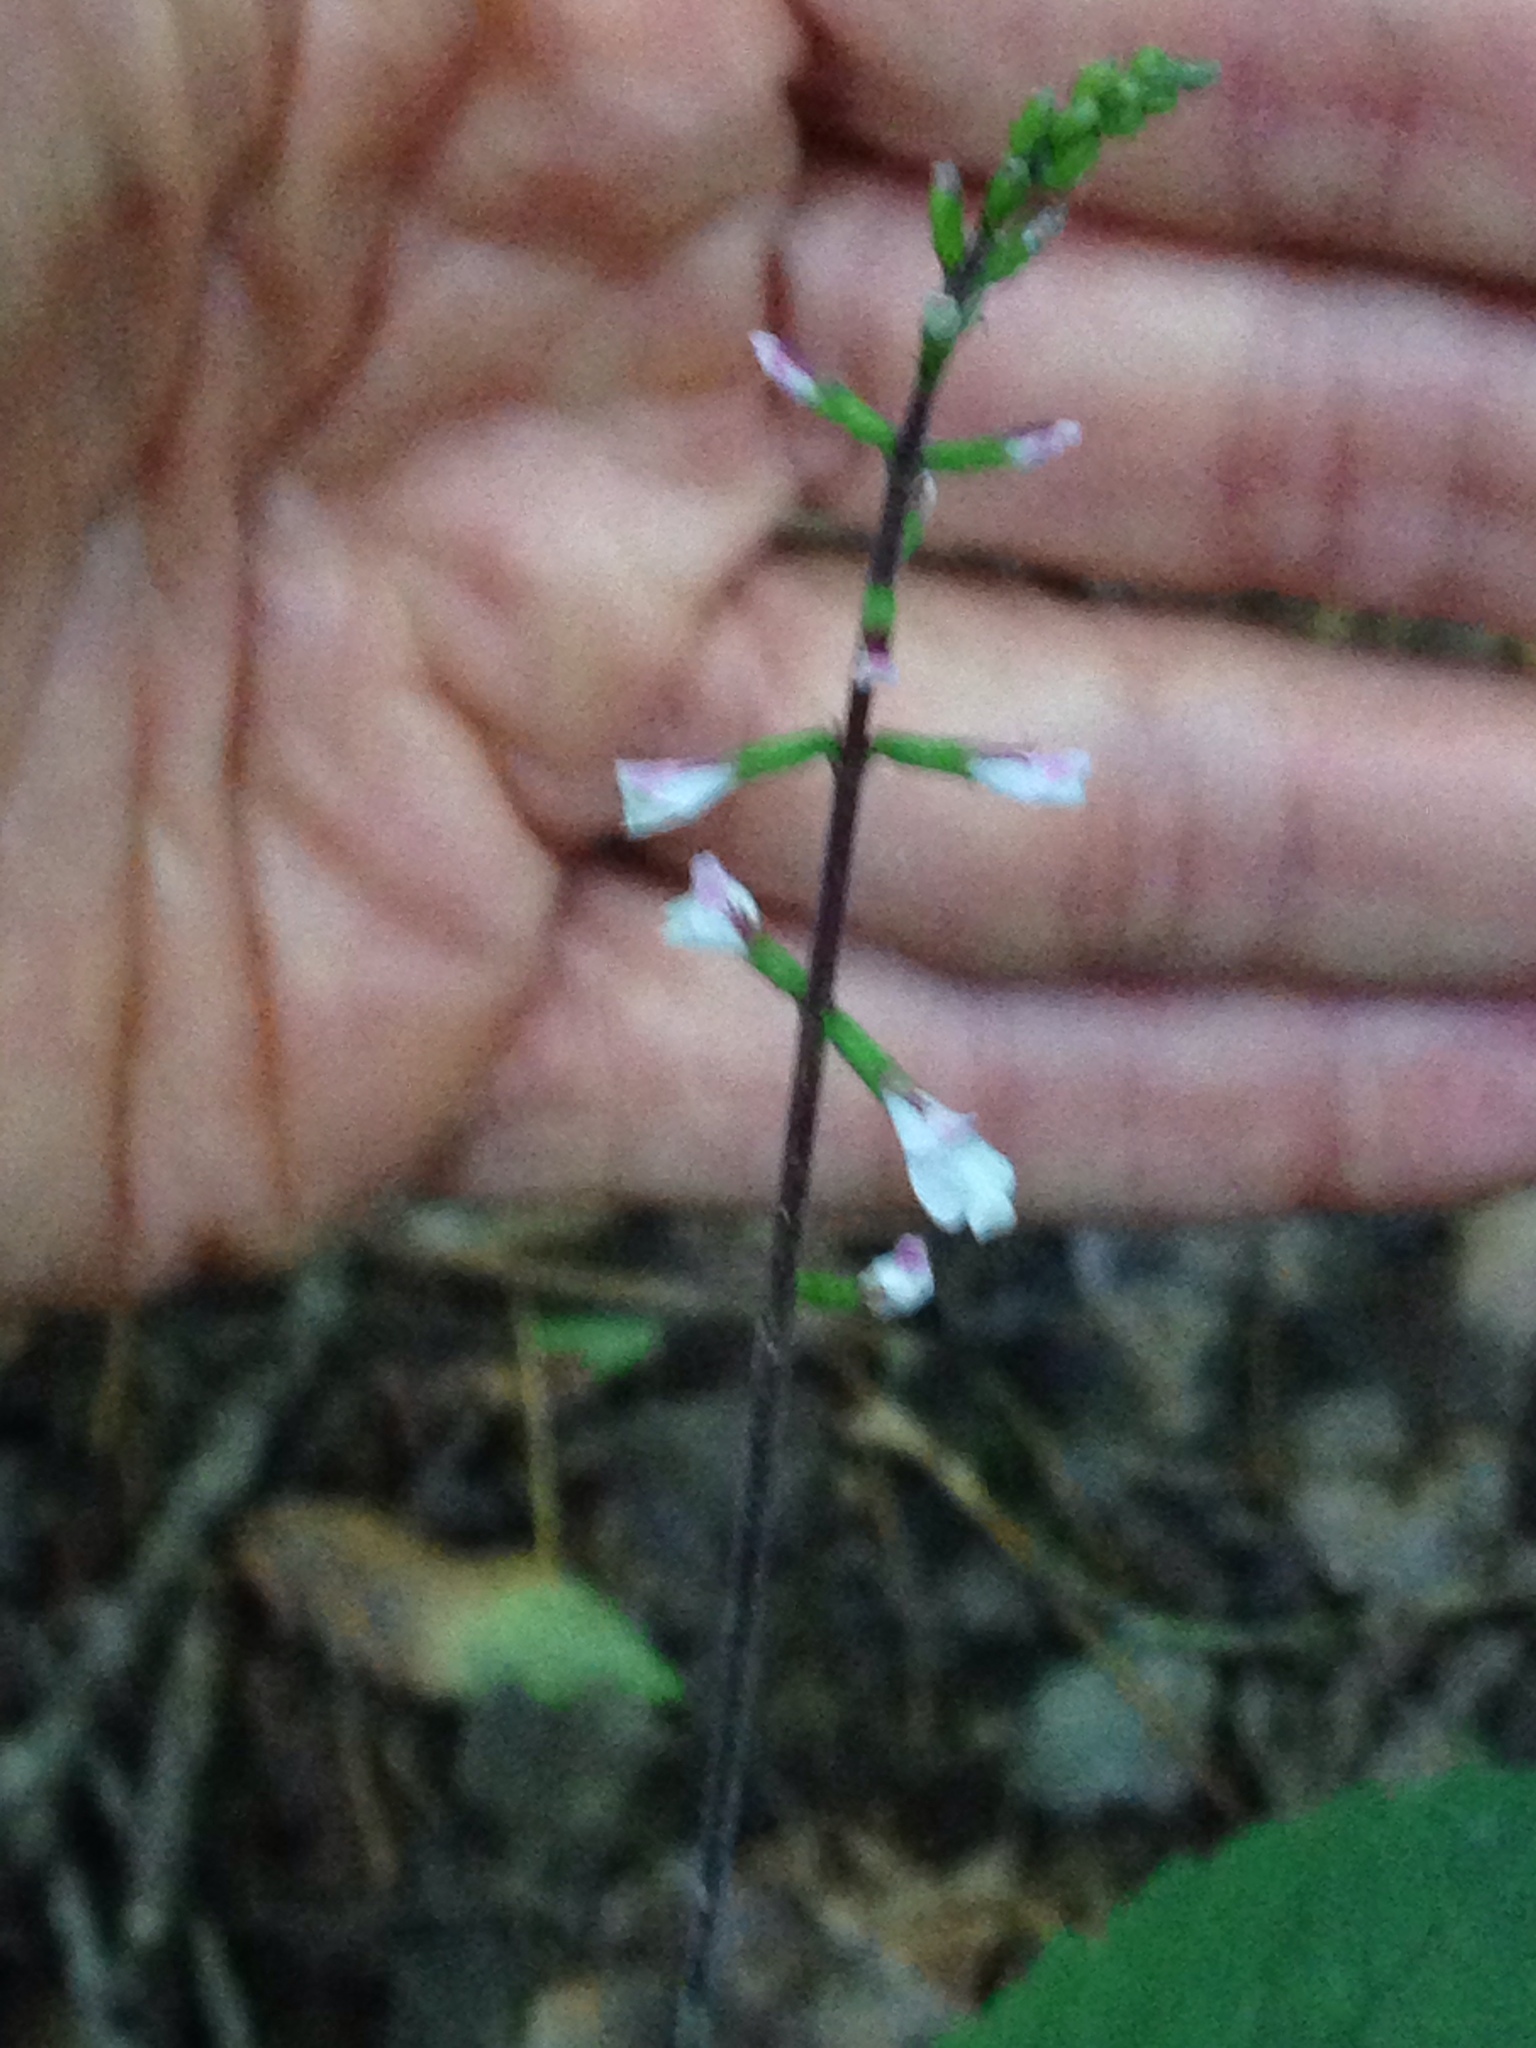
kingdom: Plantae
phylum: Tracheophyta
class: Magnoliopsida
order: Lamiales
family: Phrymaceae
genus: Phryma
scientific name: Phryma leptostachya
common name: American lopseed
